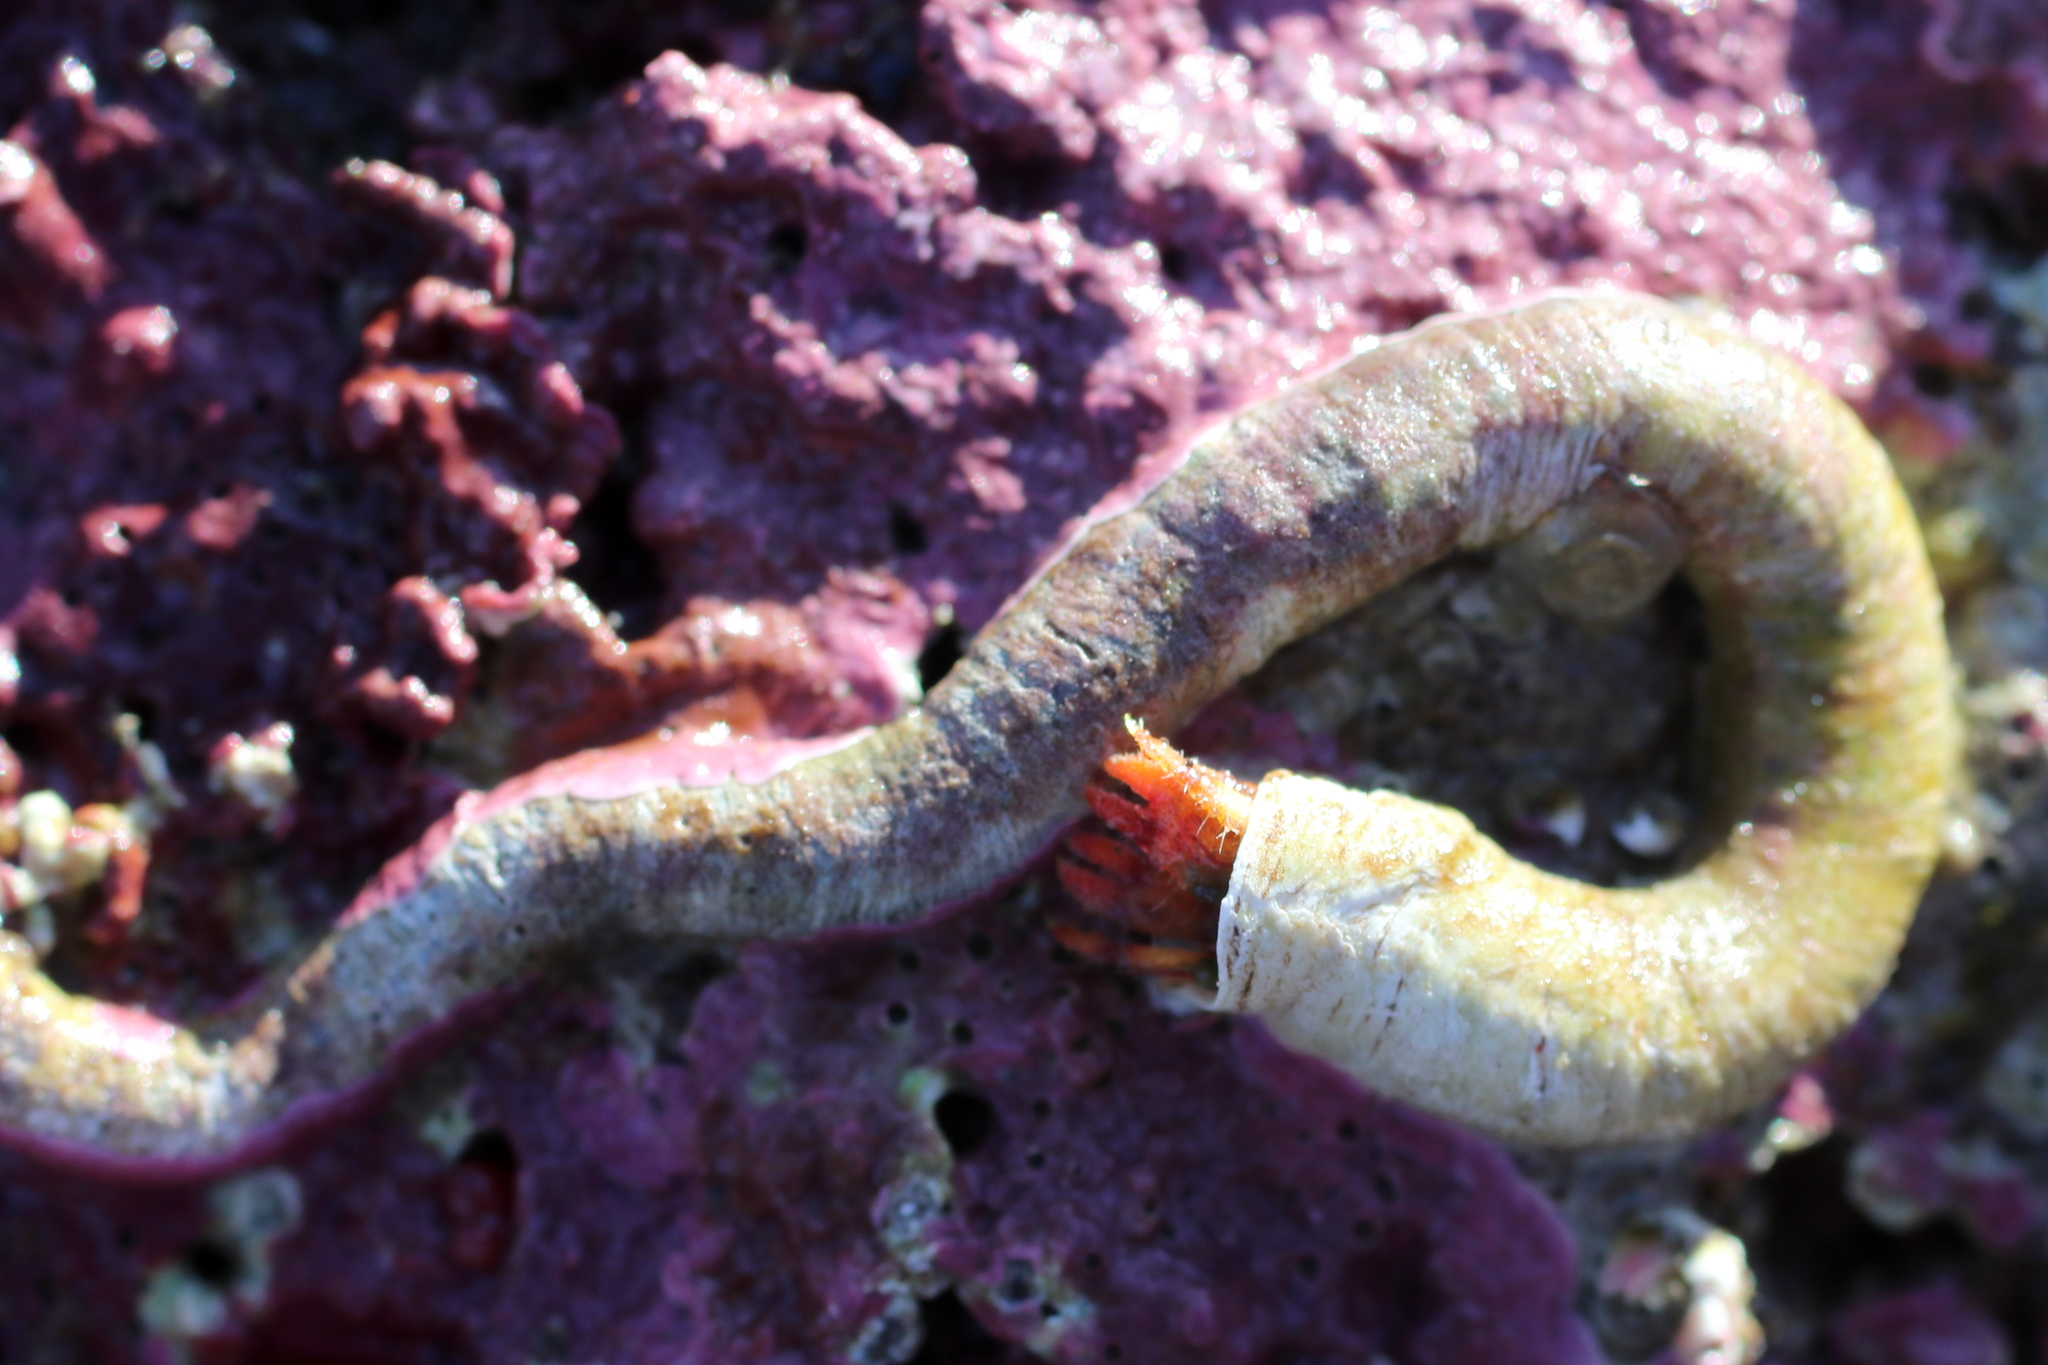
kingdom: Animalia
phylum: Arthropoda
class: Malacostraca
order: Decapoda
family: Paguridae
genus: Discorsopagurus
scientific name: Discorsopagurus schmitti
